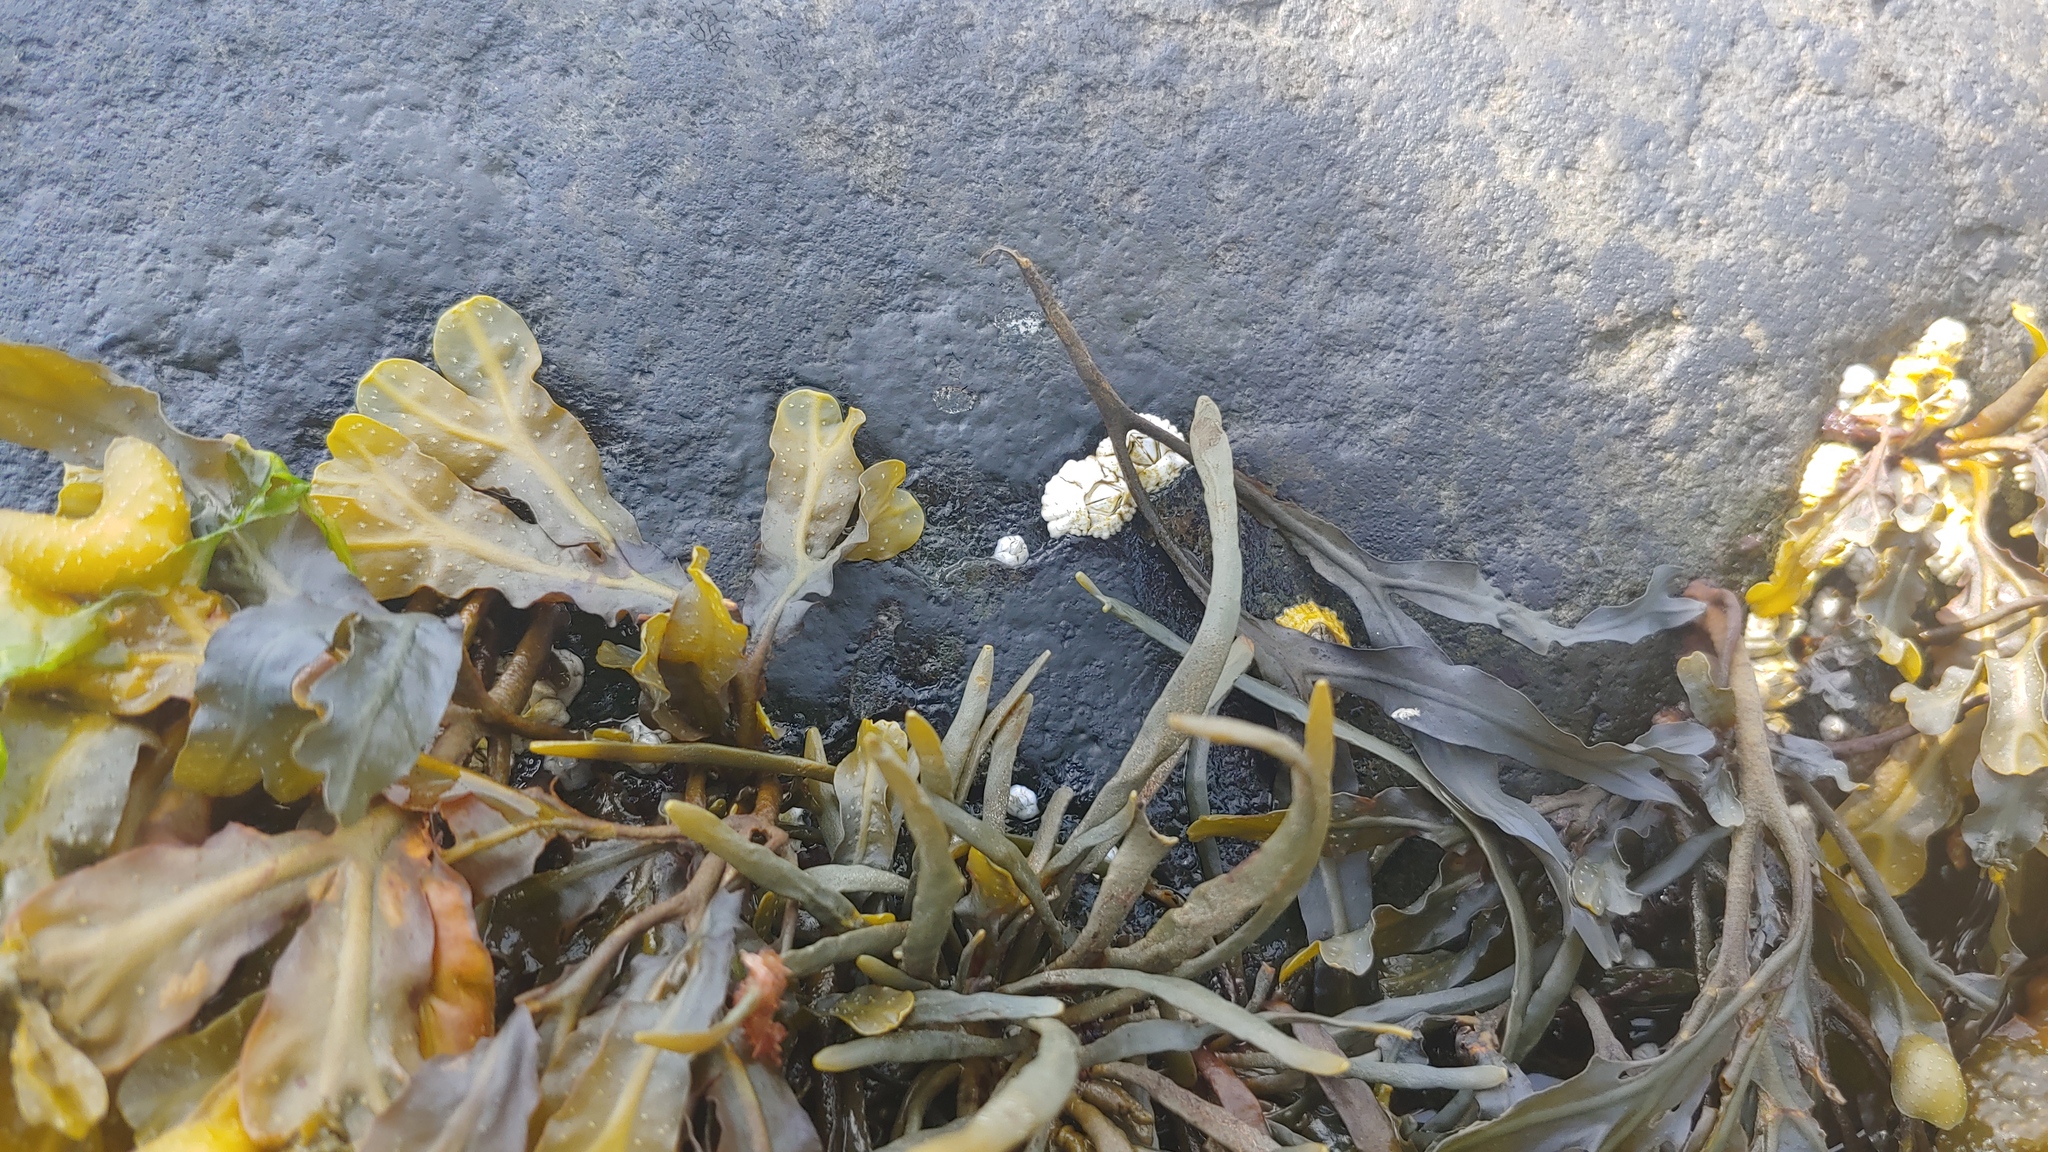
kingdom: Animalia
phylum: Arthropoda
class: Maxillopoda
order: Sessilia
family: Archaeobalanidae
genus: Semibalanus
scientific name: Semibalanus balanoides
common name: Acorn barnacle
